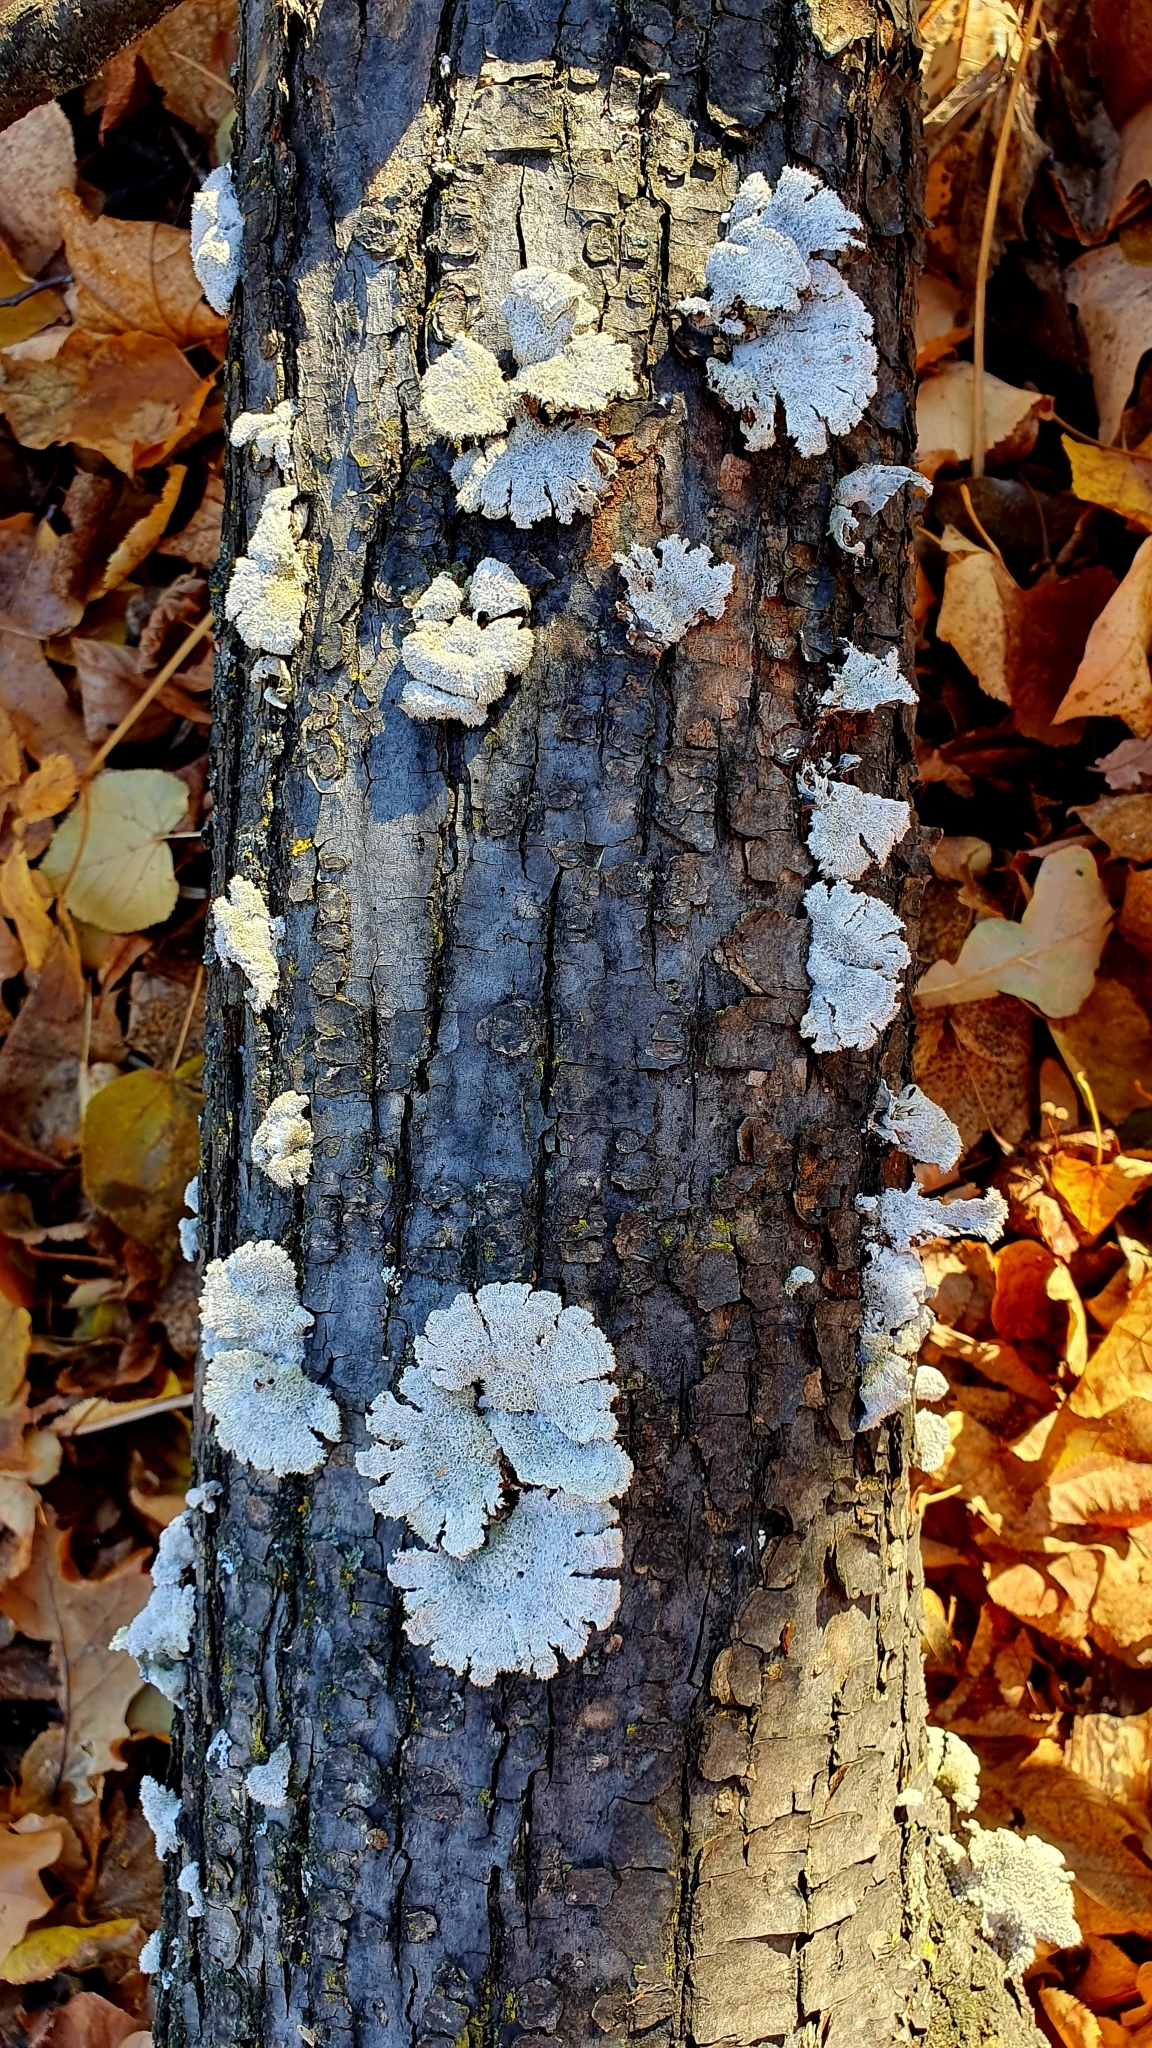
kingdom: Fungi
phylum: Basidiomycota
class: Agaricomycetes
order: Agaricales
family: Schizophyllaceae
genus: Schizophyllum
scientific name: Schizophyllum commune
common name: Common porecrust
